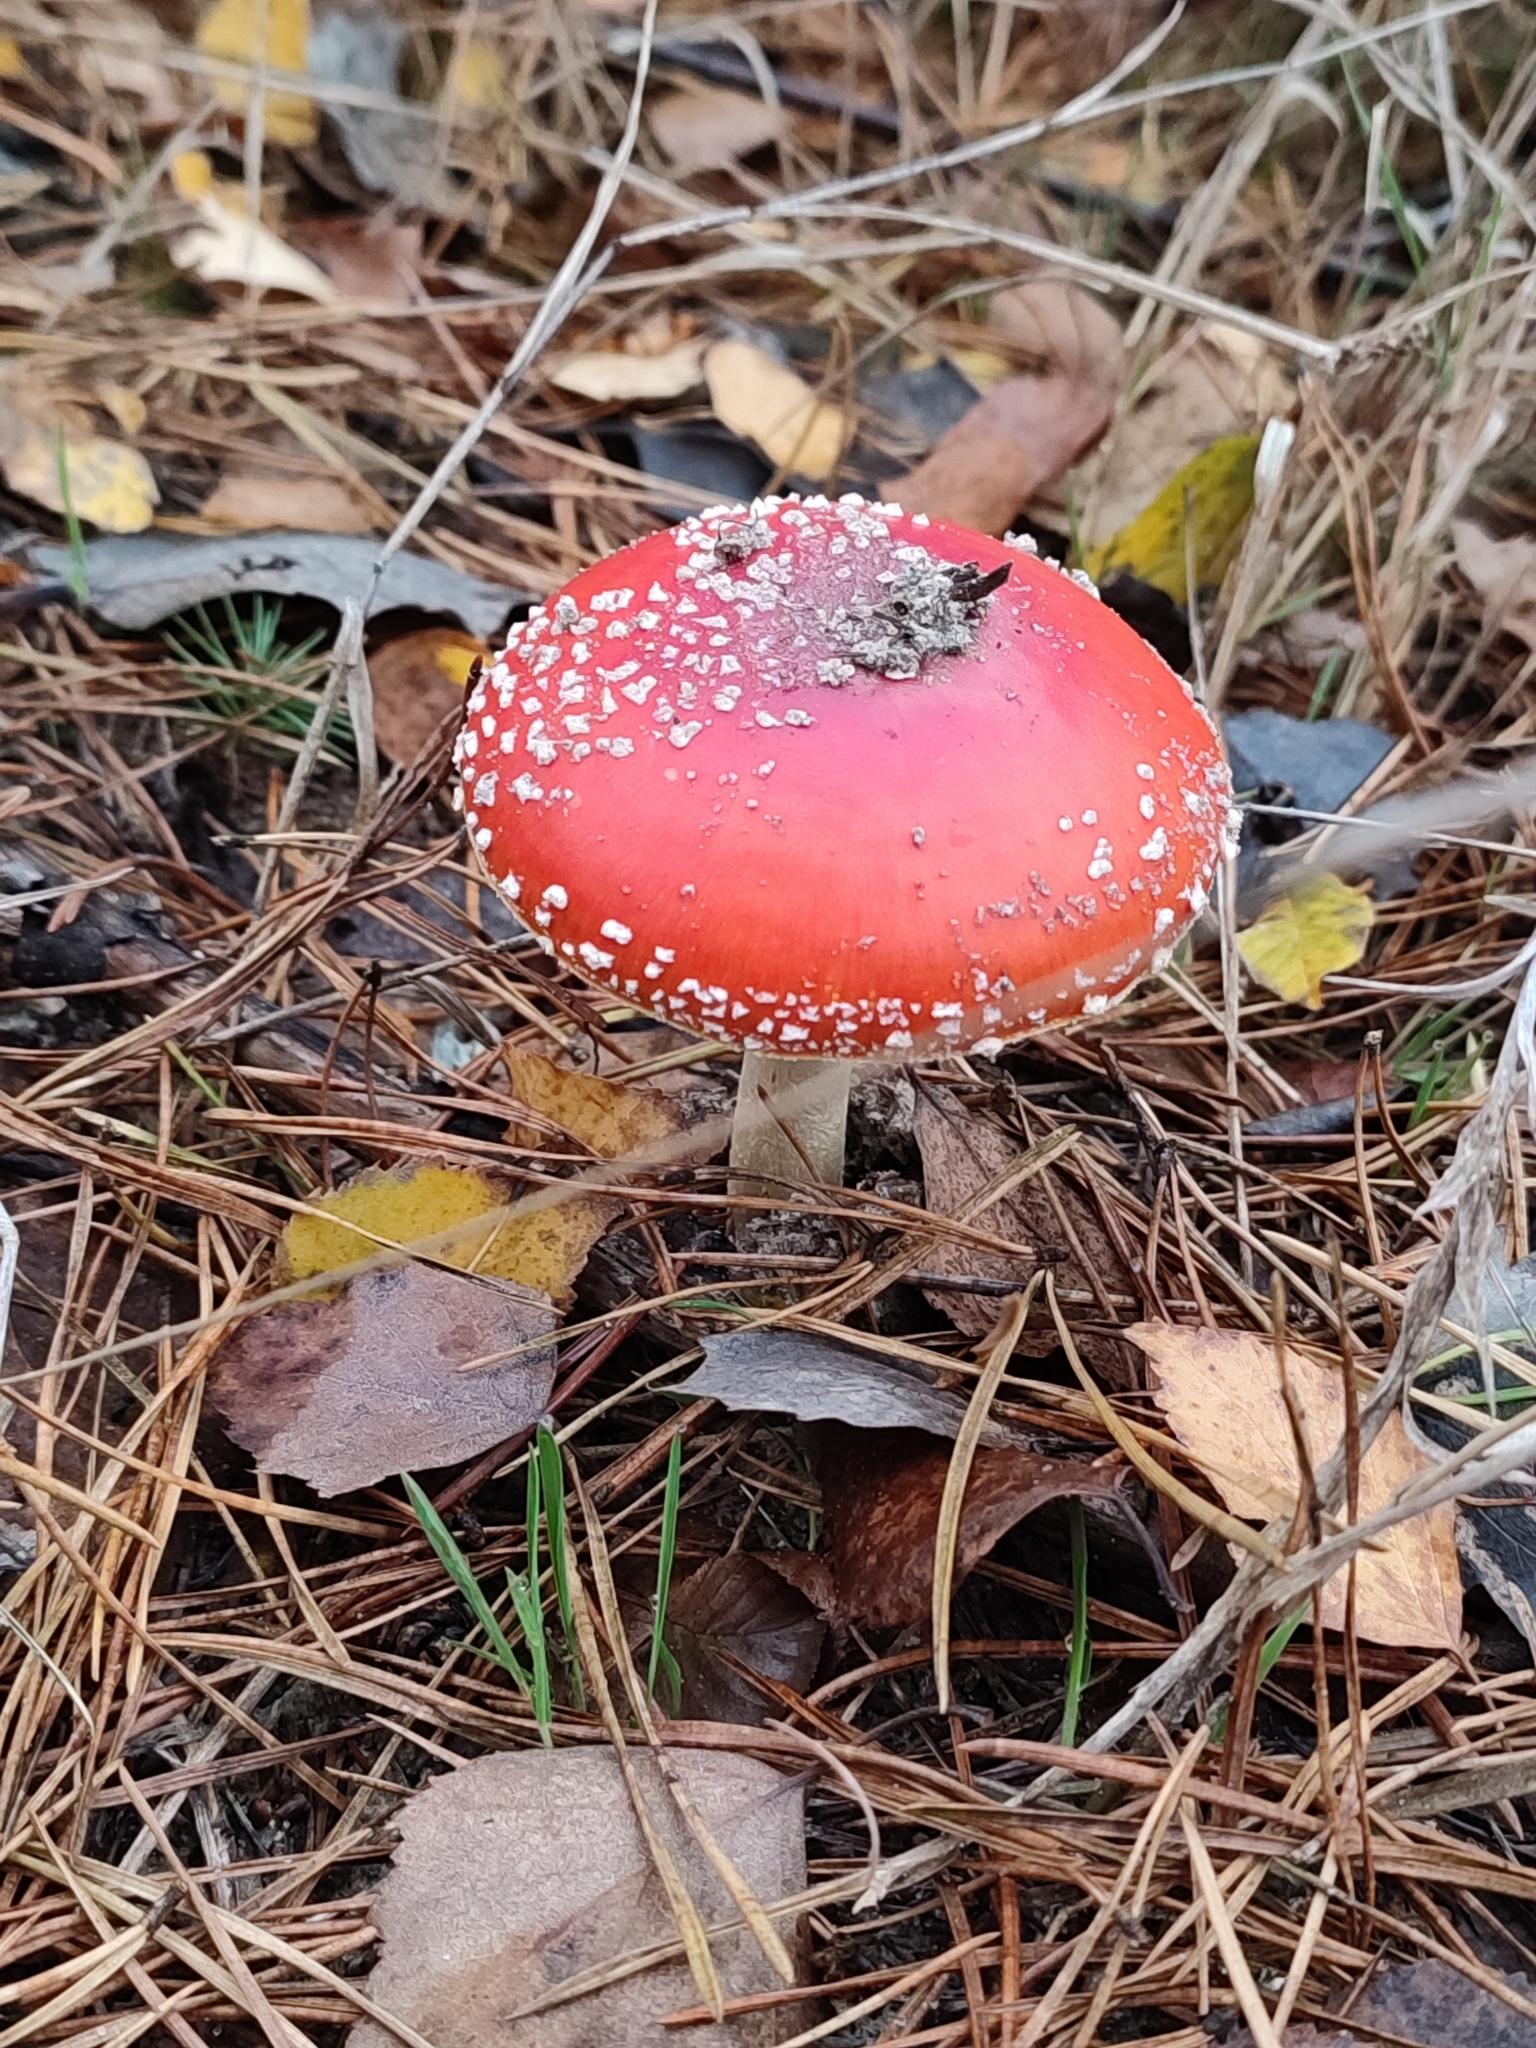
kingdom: Fungi
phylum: Basidiomycota
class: Agaricomycetes
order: Agaricales
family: Amanitaceae
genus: Amanita
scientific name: Amanita muscaria
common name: Fly agaric
